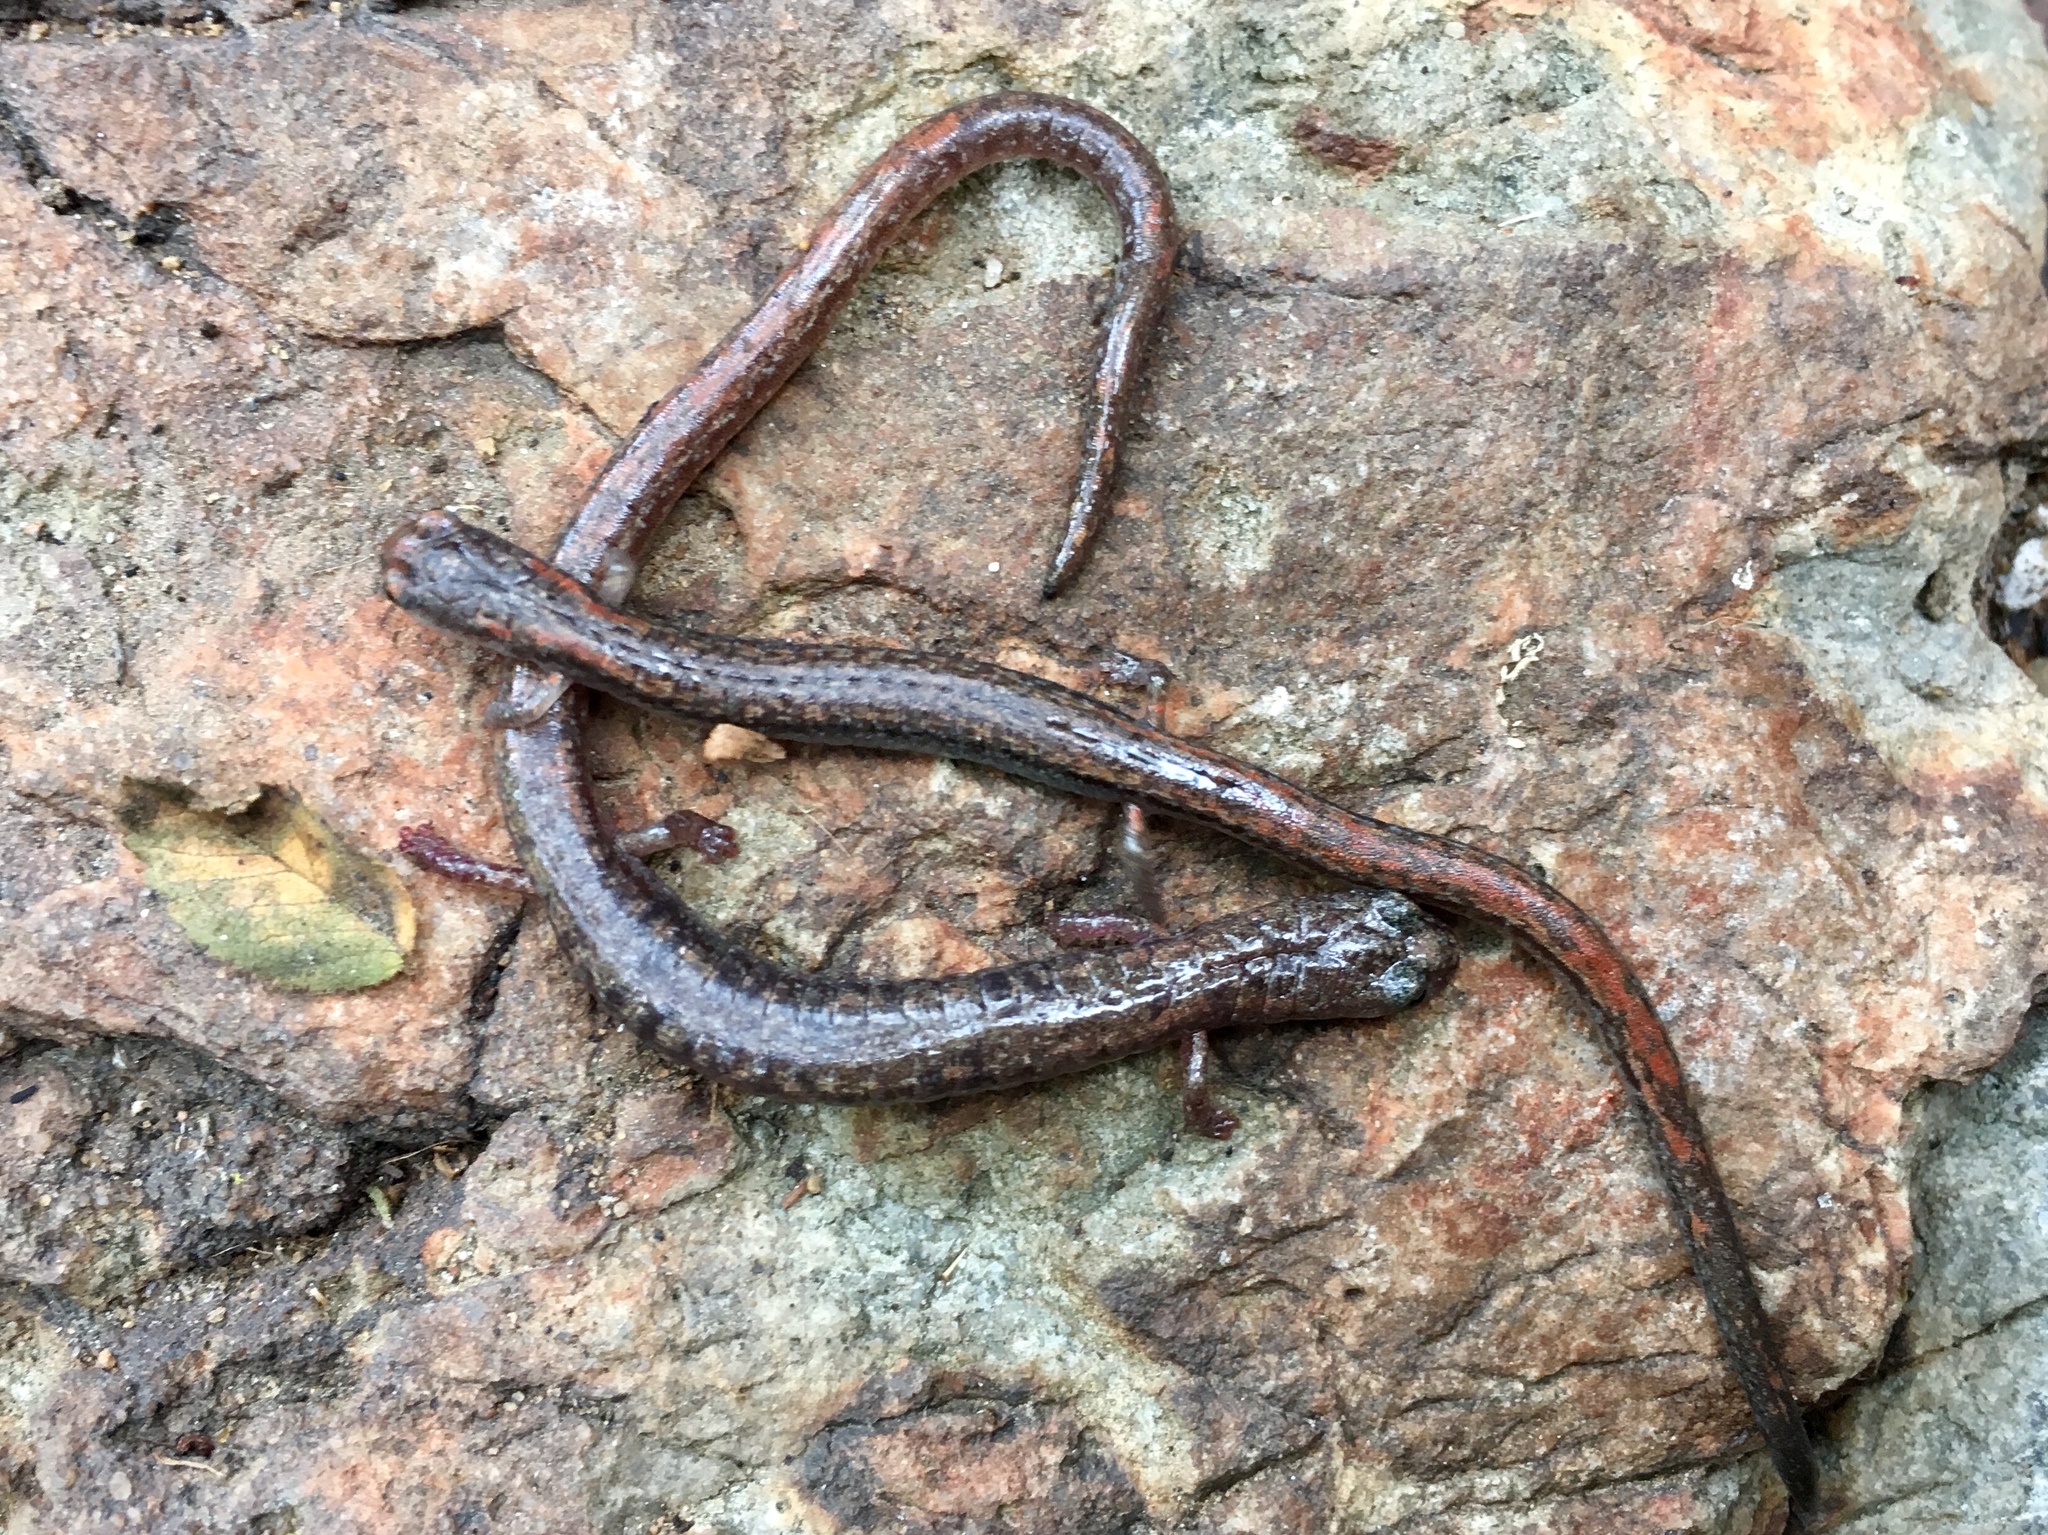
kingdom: Animalia
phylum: Chordata
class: Amphibia
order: Caudata
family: Plethodontidae
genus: Batrachoseps
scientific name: Batrachoseps major
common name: Garden slender salamander
